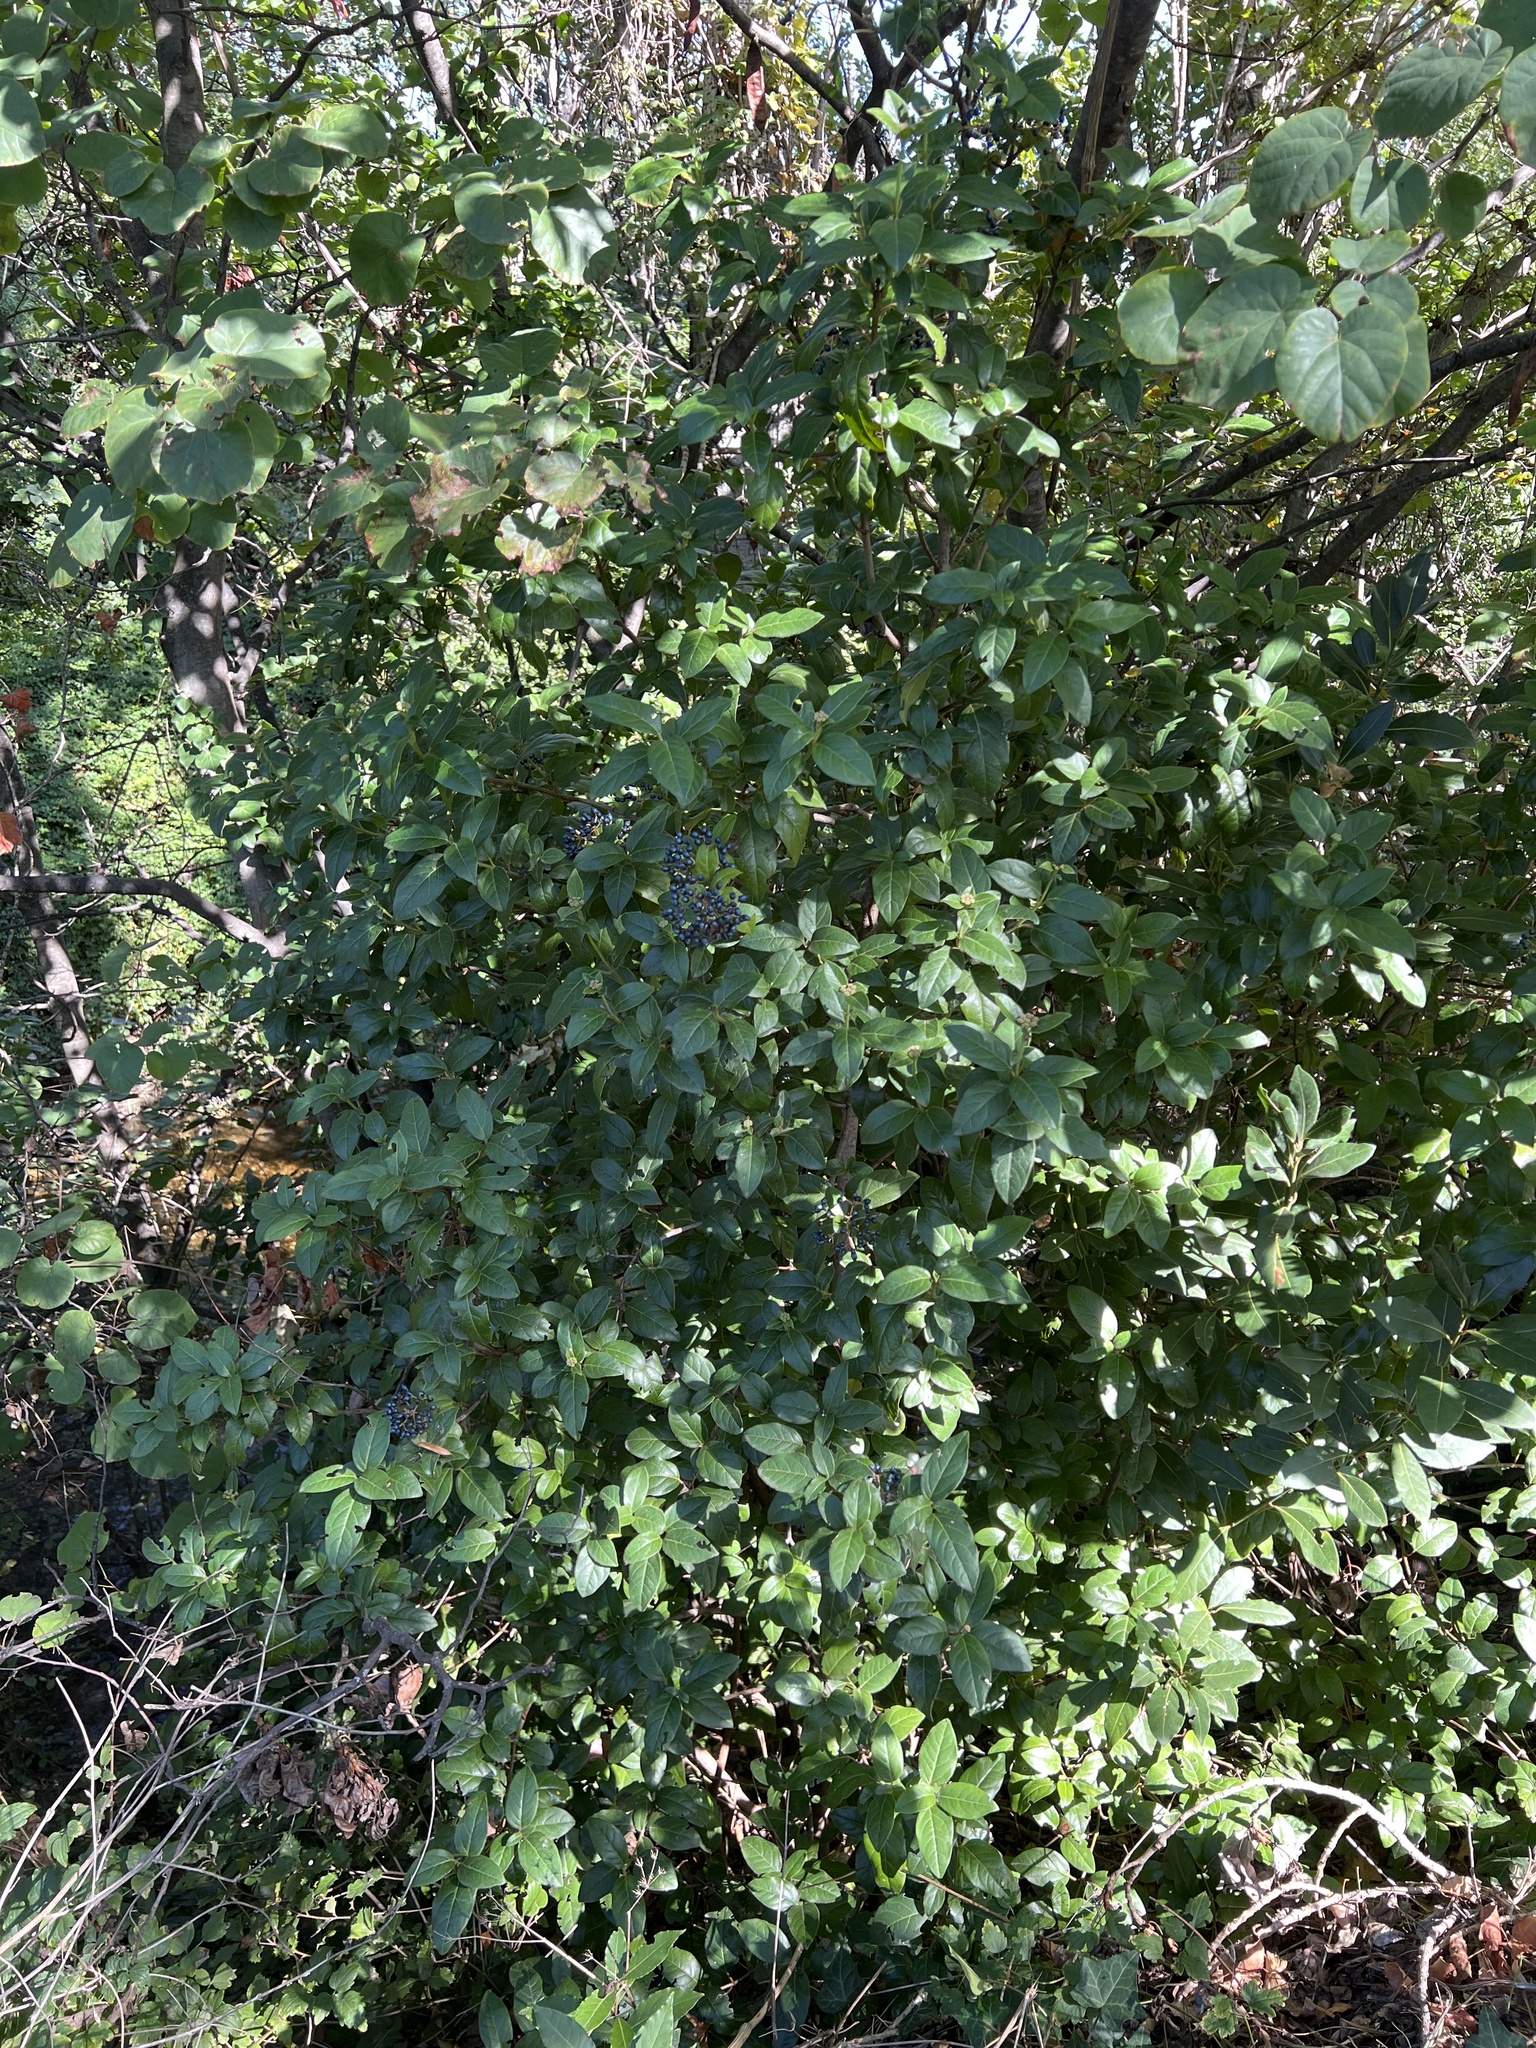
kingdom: Plantae
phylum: Tracheophyta
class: Magnoliopsida
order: Dipsacales
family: Viburnaceae
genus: Viburnum
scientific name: Viburnum tinus
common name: Laurustinus
